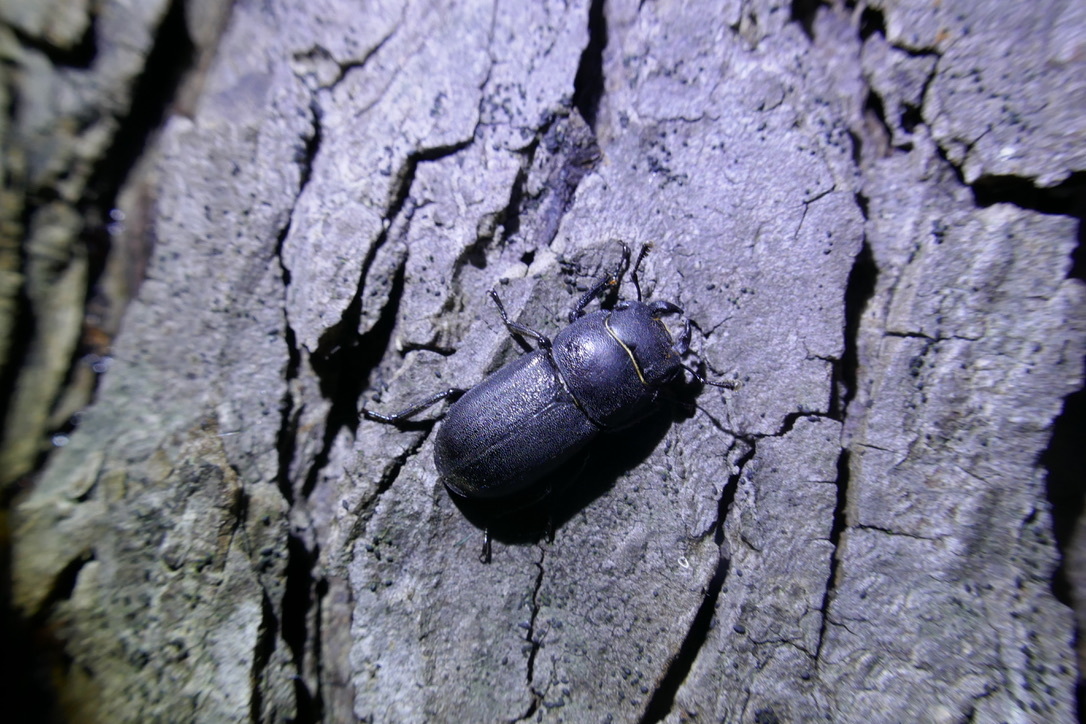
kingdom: Animalia
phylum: Arthropoda
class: Insecta
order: Coleoptera
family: Lucanidae
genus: Dorcus
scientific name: Dorcus parallelipipedus
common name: Lesser stag beetle
